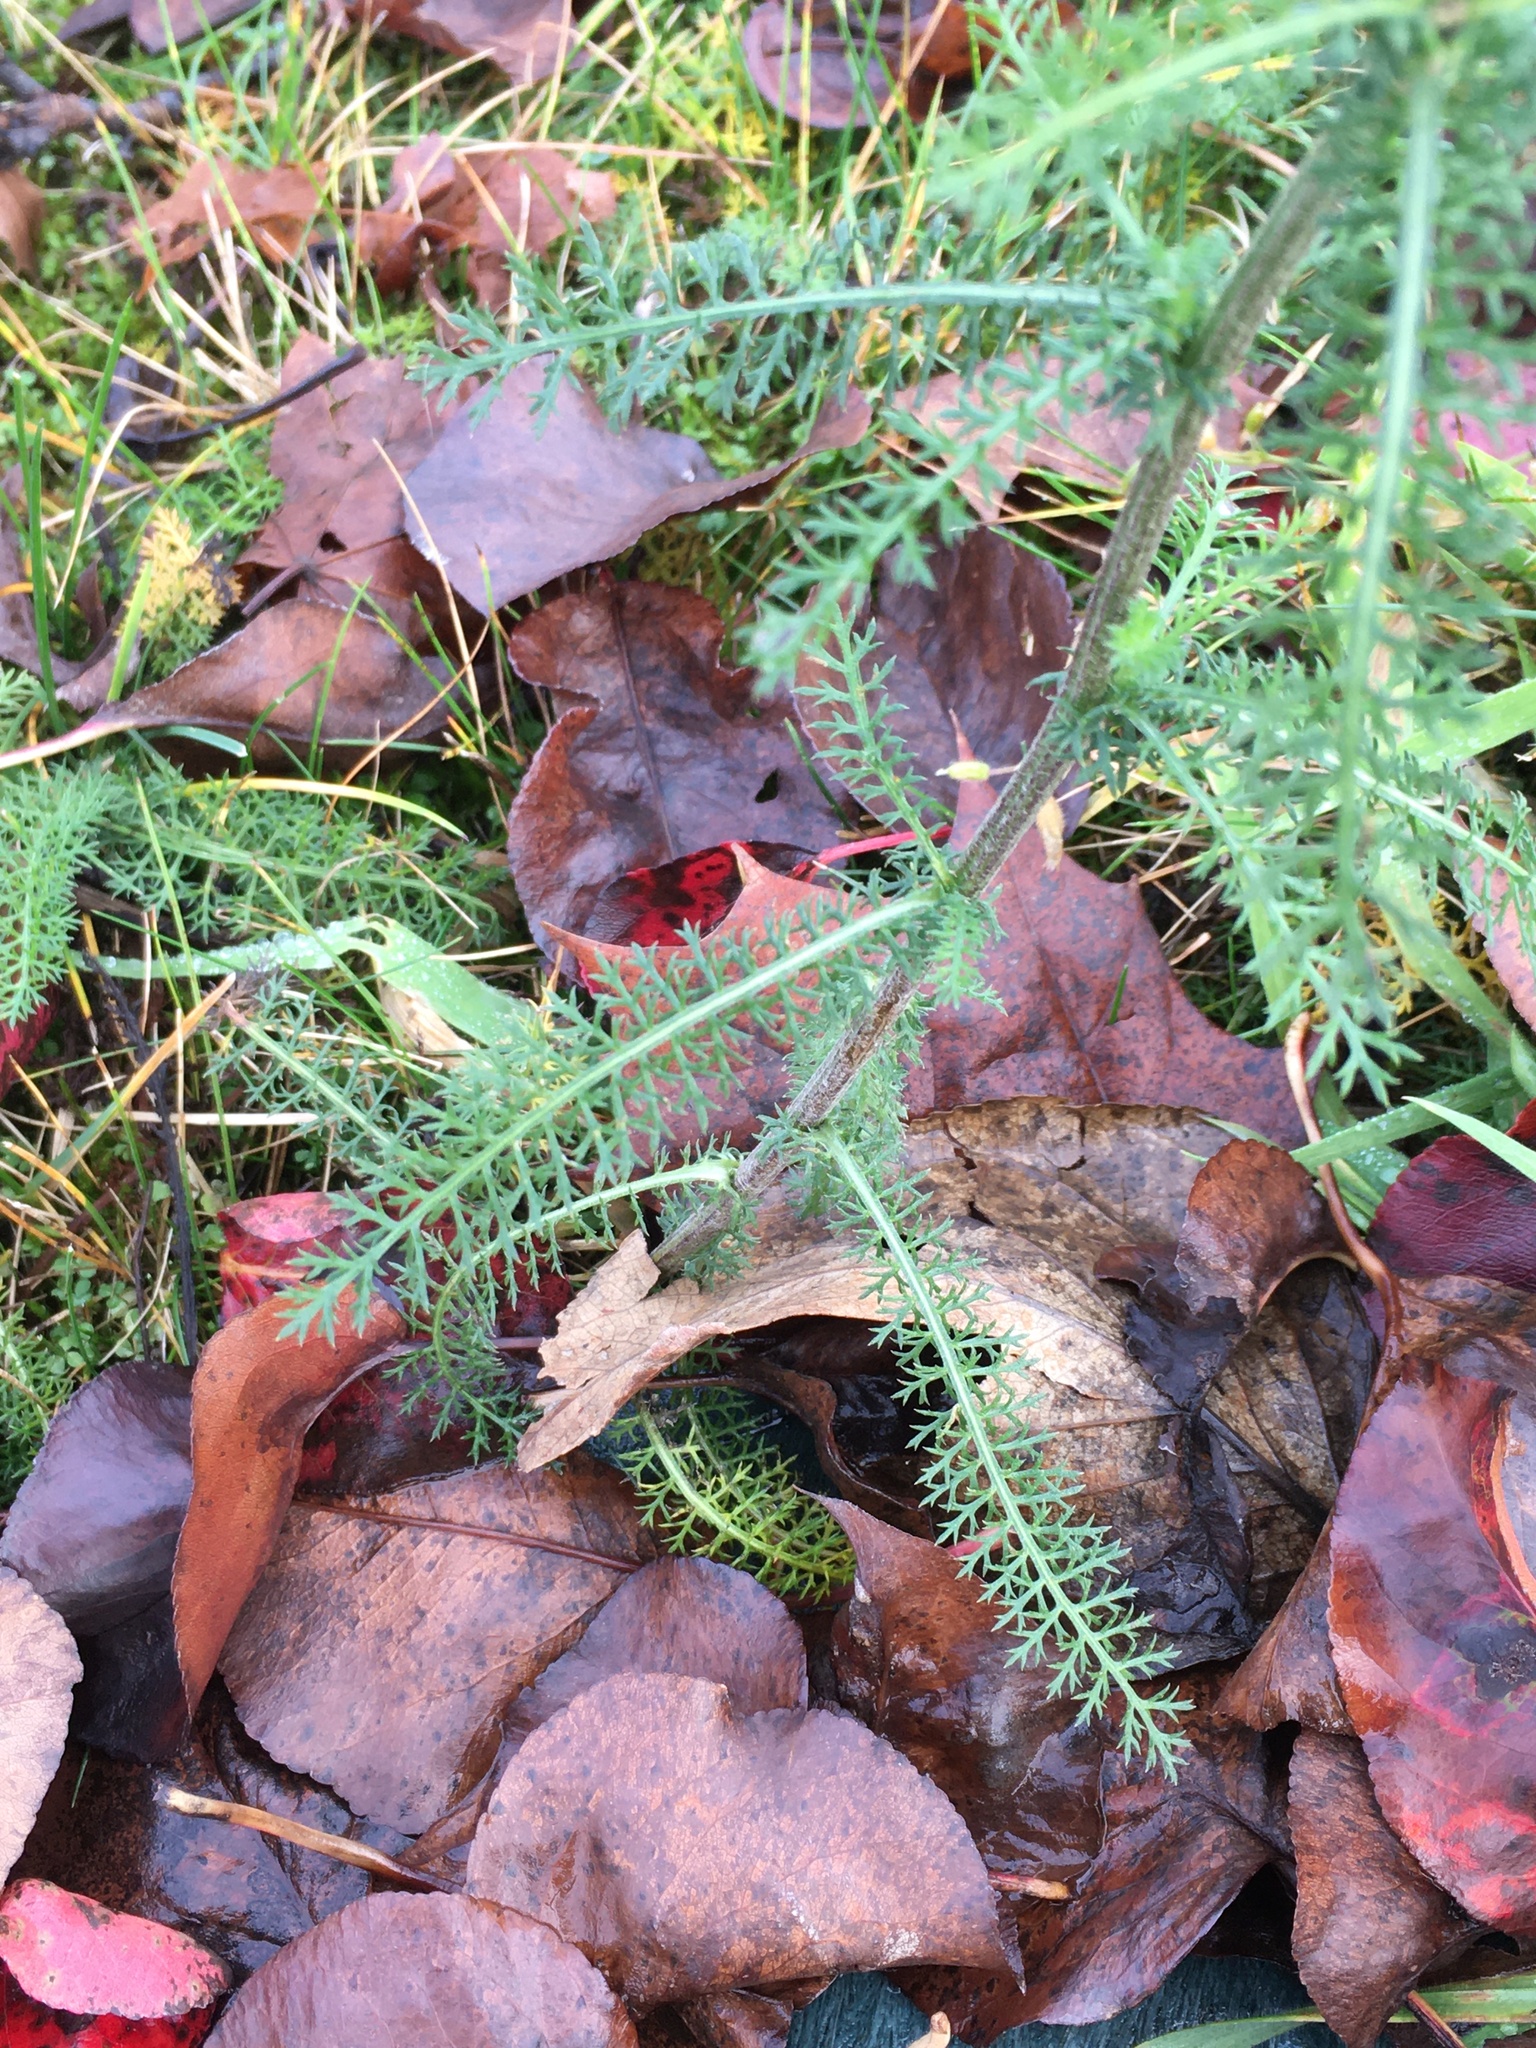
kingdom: Plantae
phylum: Tracheophyta
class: Magnoliopsida
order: Asterales
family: Asteraceae
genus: Achillea
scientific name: Achillea millefolium
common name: Yarrow
